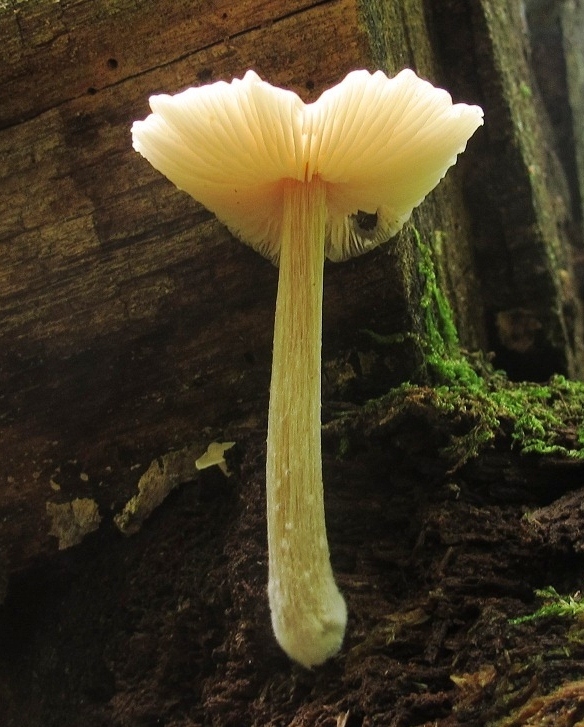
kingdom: Fungi
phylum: Basidiomycota
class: Agaricomycetes
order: Agaricales
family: Entolomataceae
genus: Entoloma
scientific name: Entoloma strictius
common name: Straight-stalked entoloma
